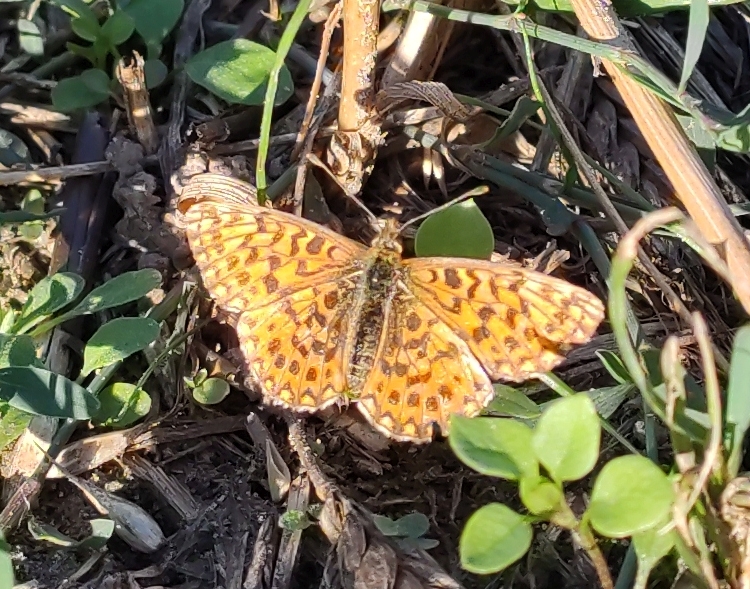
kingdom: Animalia
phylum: Arthropoda
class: Insecta
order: Lepidoptera
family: Nymphalidae
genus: Boloria
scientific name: Boloria dia
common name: Weaver's fritillary
